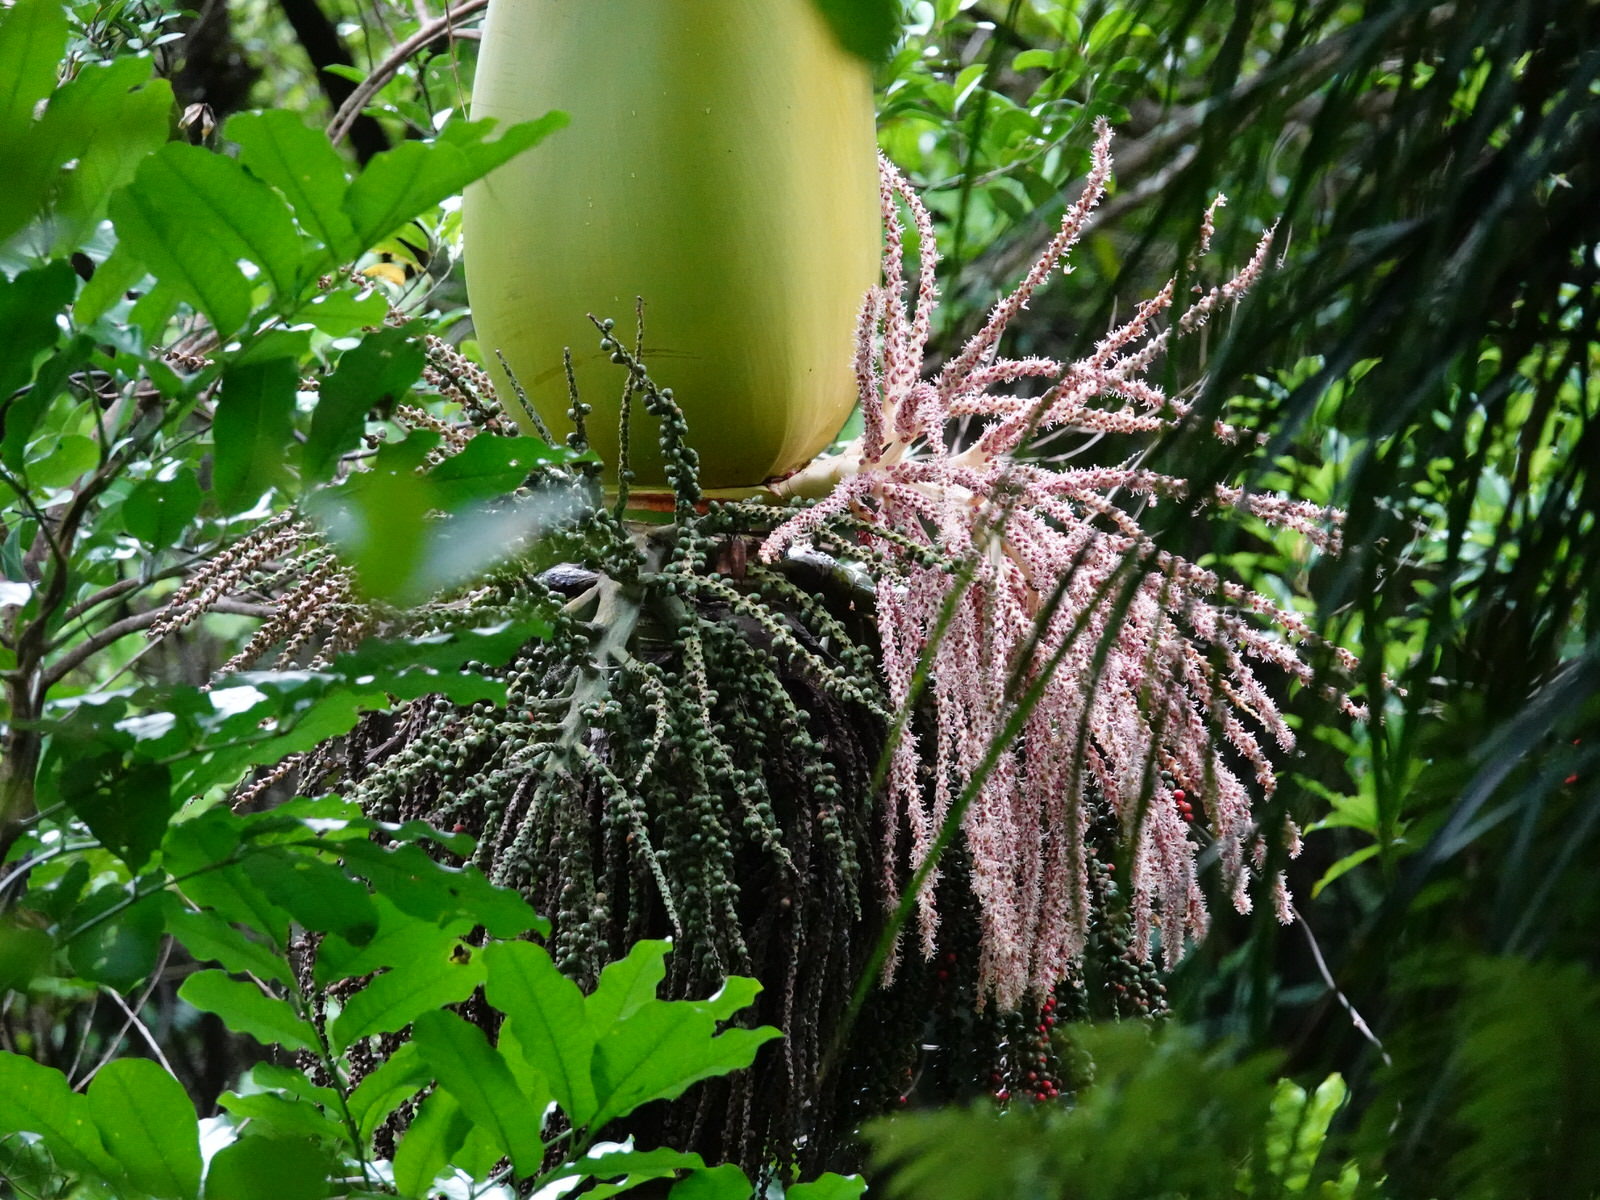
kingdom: Plantae
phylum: Tracheophyta
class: Liliopsida
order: Arecales
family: Arecaceae
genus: Rhopalostylis
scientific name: Rhopalostylis sapida
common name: Feather-duster palm
